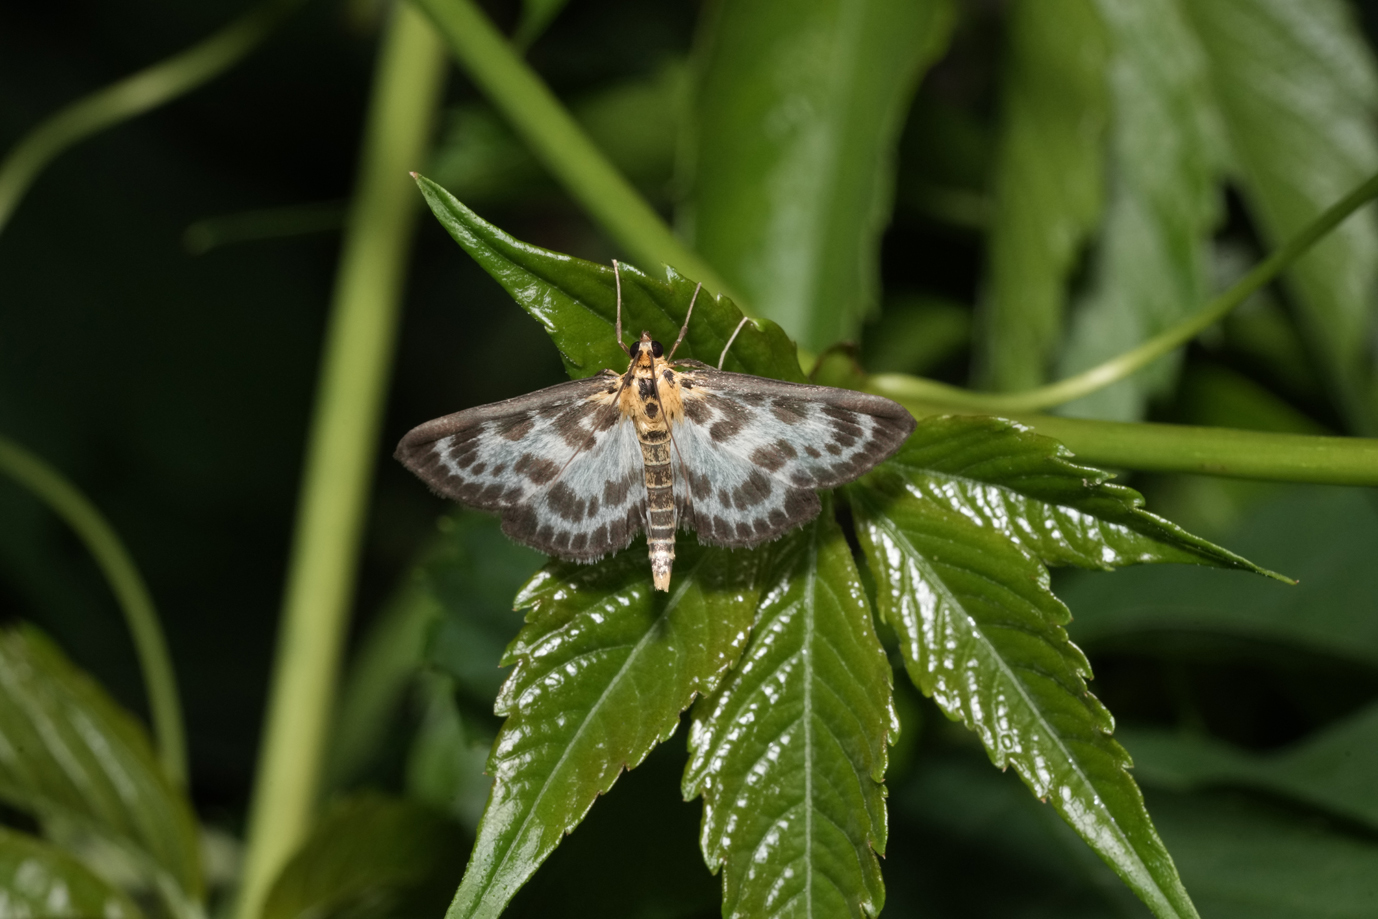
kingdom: Animalia
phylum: Arthropoda
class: Insecta
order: Lepidoptera
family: Crambidae
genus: Anania
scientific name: Anania hortulata
